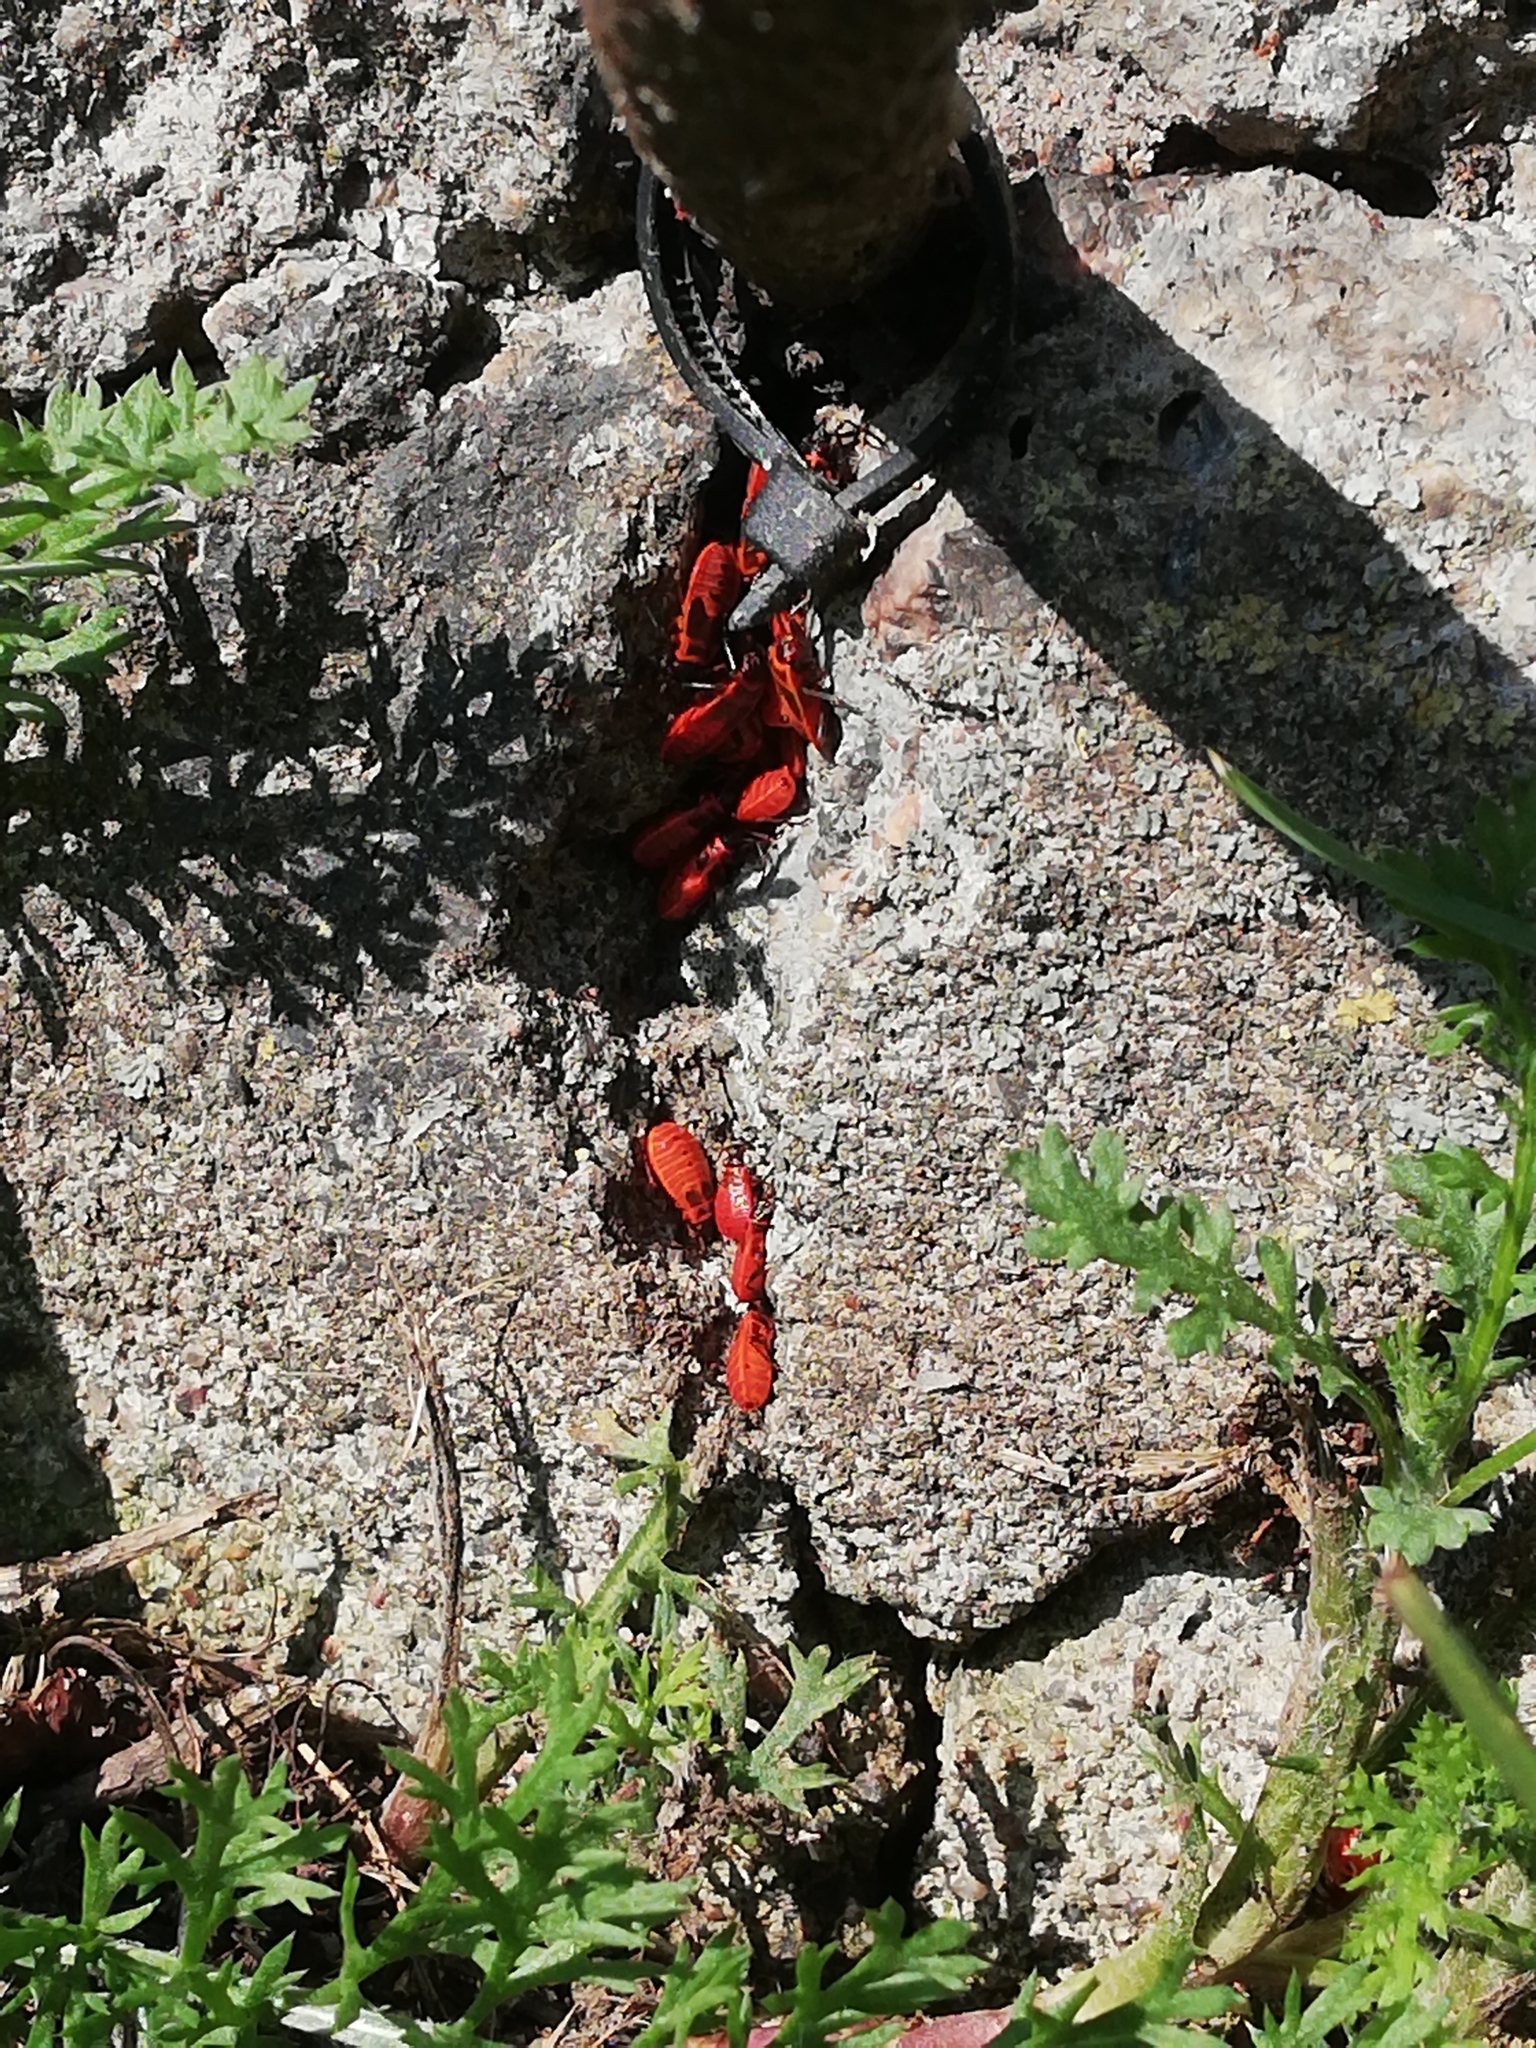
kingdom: Animalia
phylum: Arthropoda
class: Insecta
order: Hemiptera
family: Pyrrhocoridae
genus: Pyrrhocoris
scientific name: Pyrrhocoris apterus
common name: Firebug
